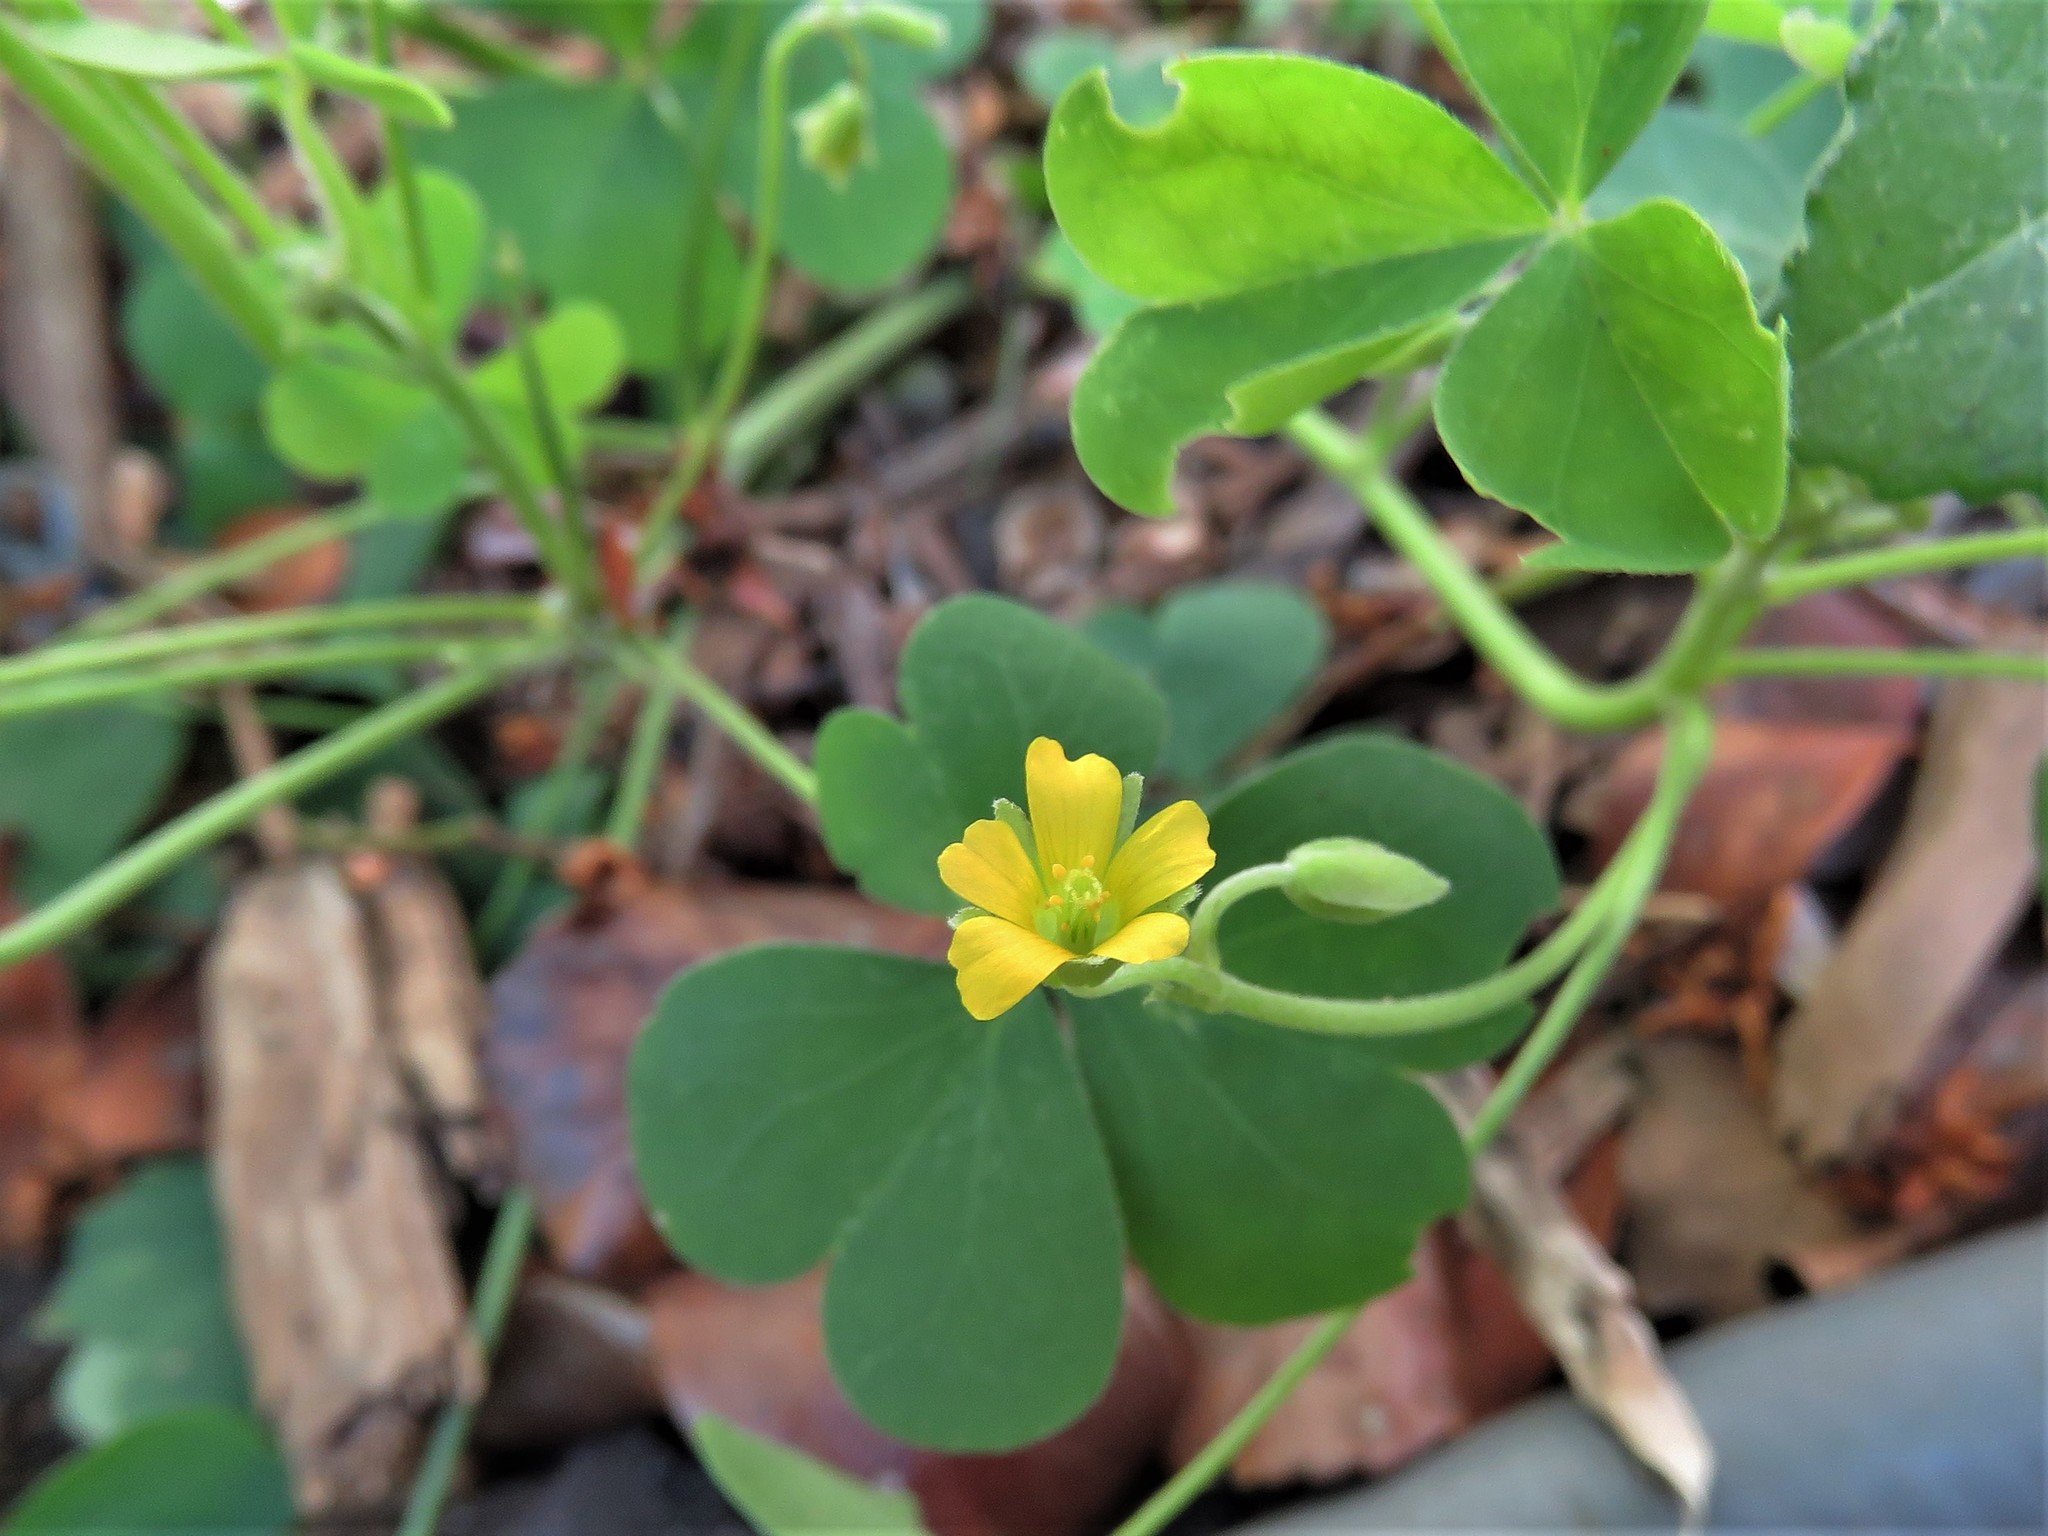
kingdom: Plantae
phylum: Tracheophyta
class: Magnoliopsida
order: Oxalidales
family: Oxalidaceae
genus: Oxalis
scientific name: Oxalis dillenii
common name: Sussex yellow-sorrel
